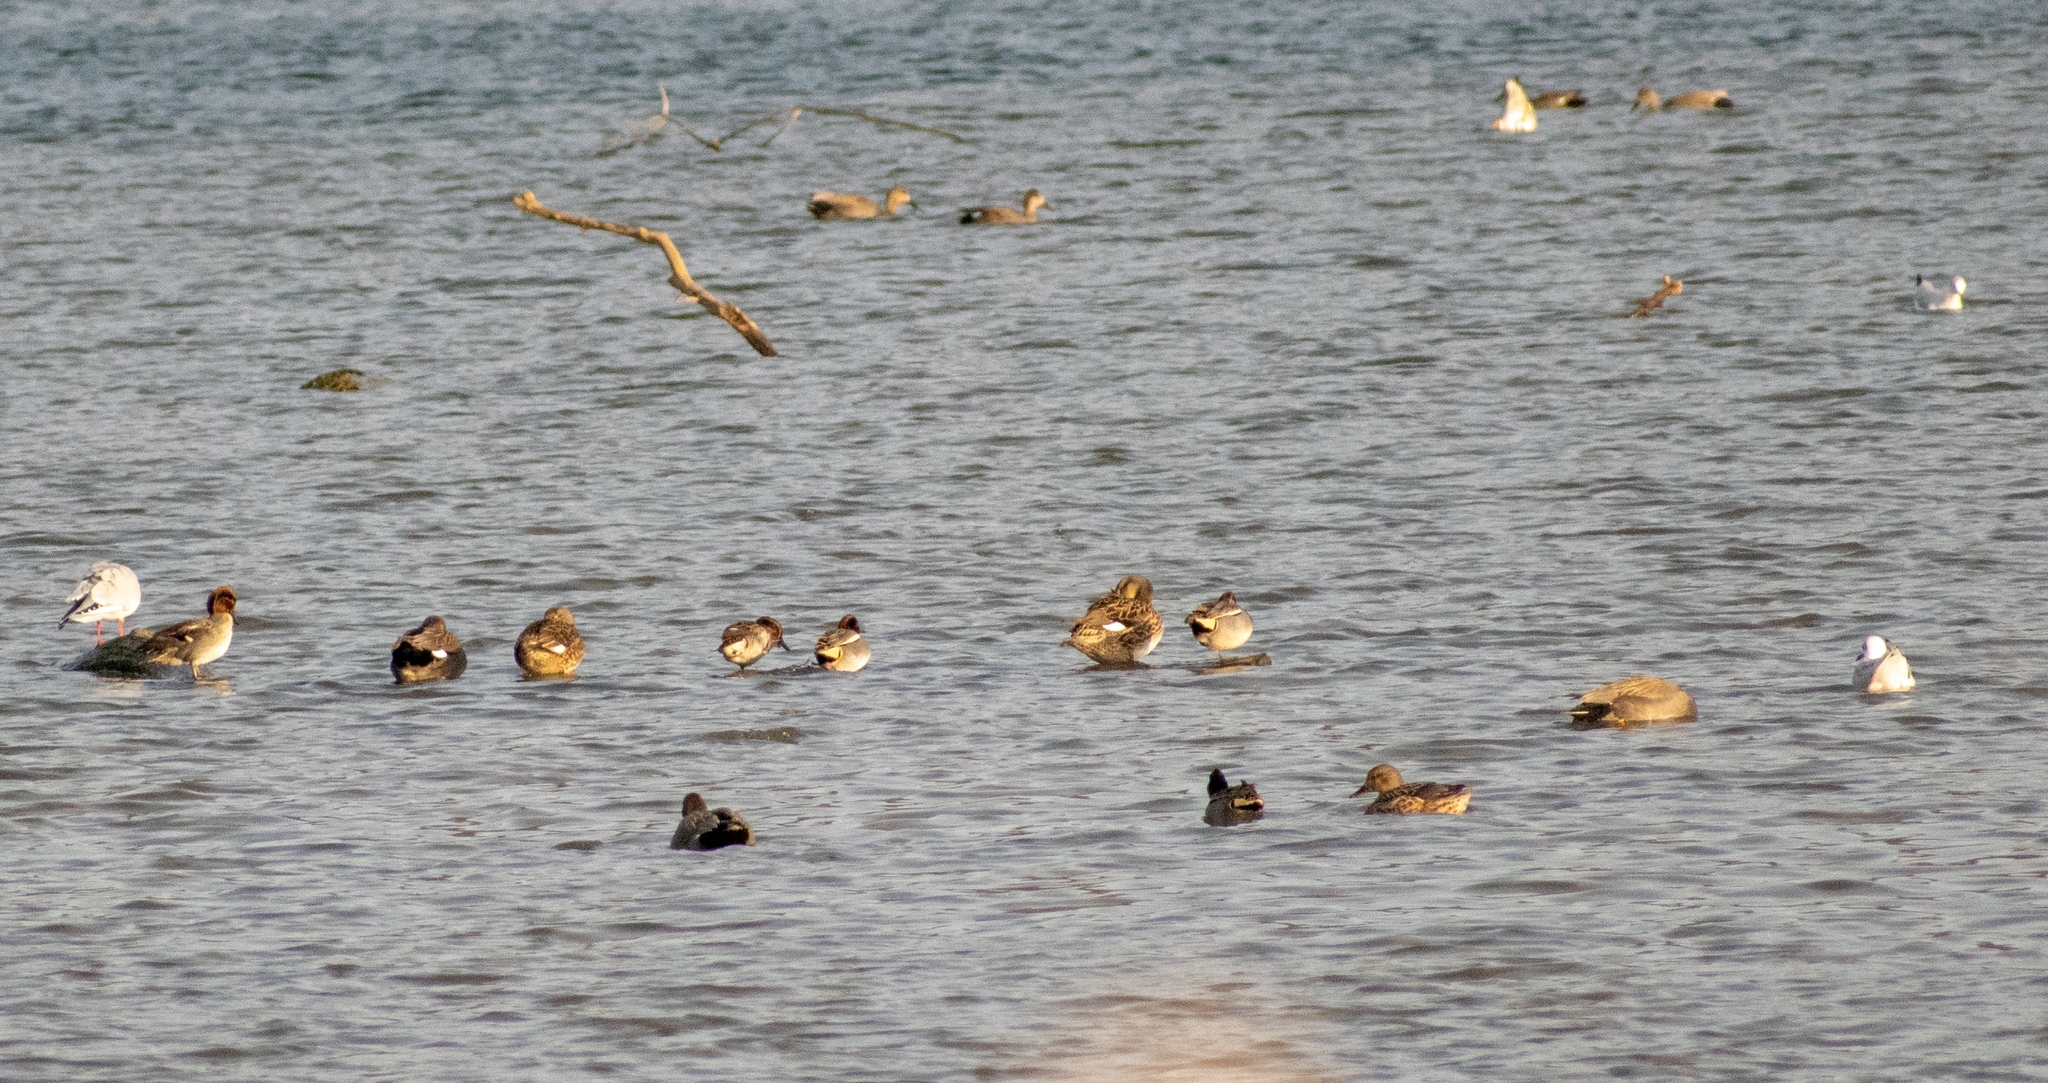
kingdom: Animalia
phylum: Chordata
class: Aves
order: Anseriformes
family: Anatidae
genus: Anas
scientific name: Anas crecca
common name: Eurasian teal
